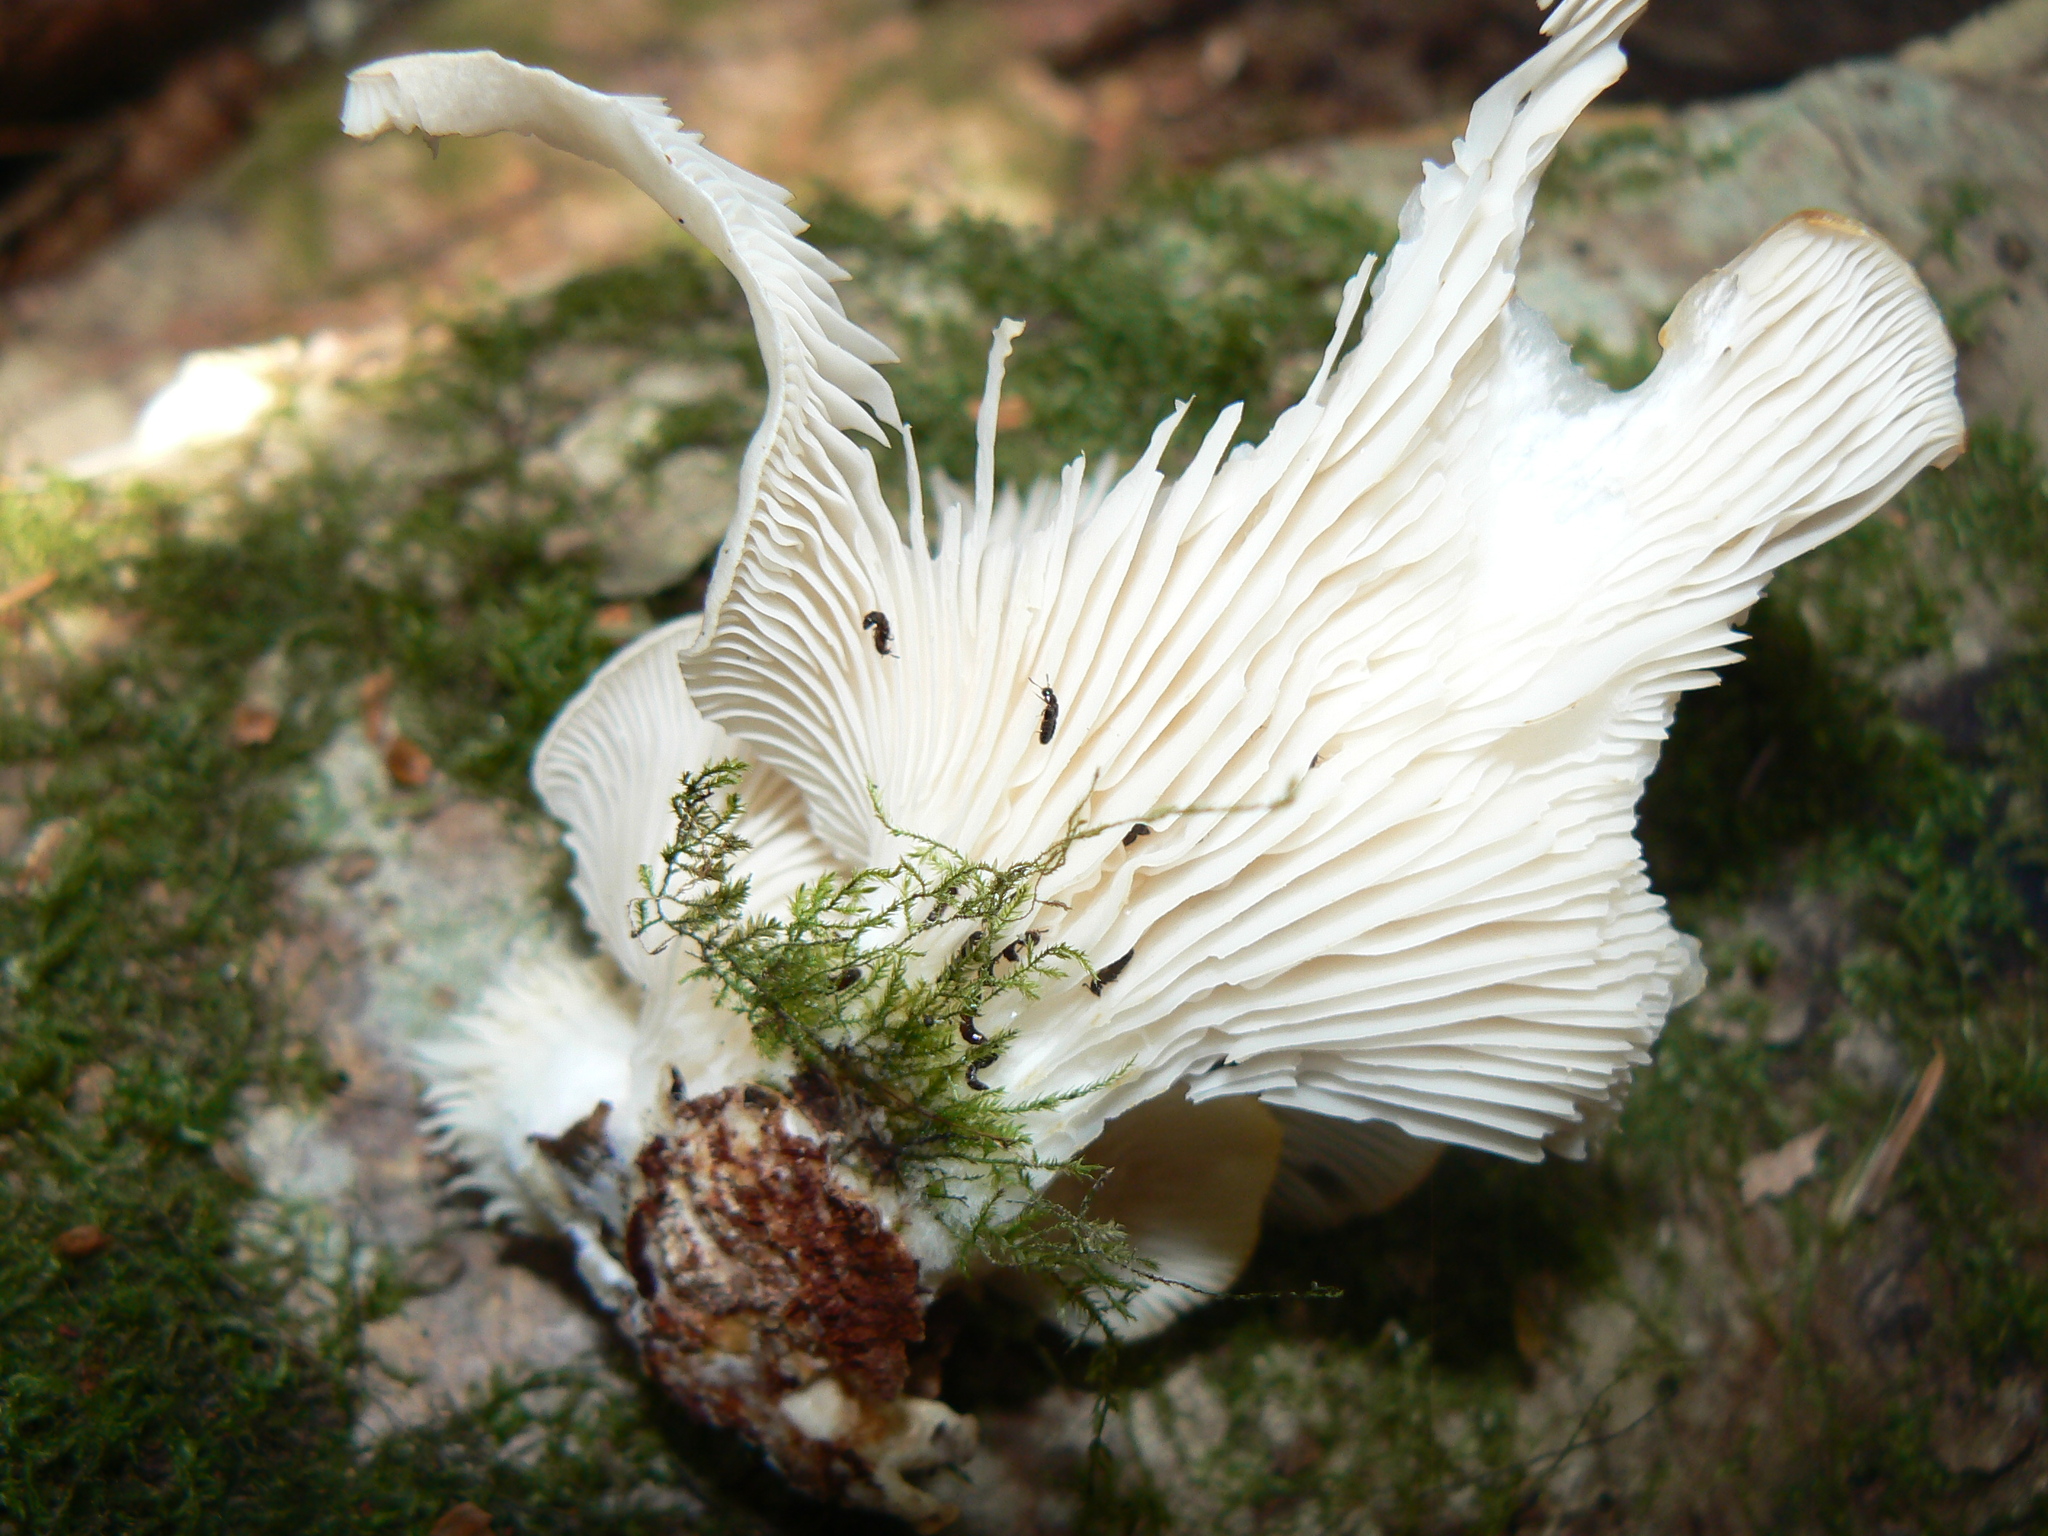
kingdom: Fungi
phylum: Basidiomycota
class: Agaricomycetes
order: Agaricales
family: Pleurotaceae
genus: Pleurotus
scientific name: Pleurotus pulmonarius
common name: Pale oyster
